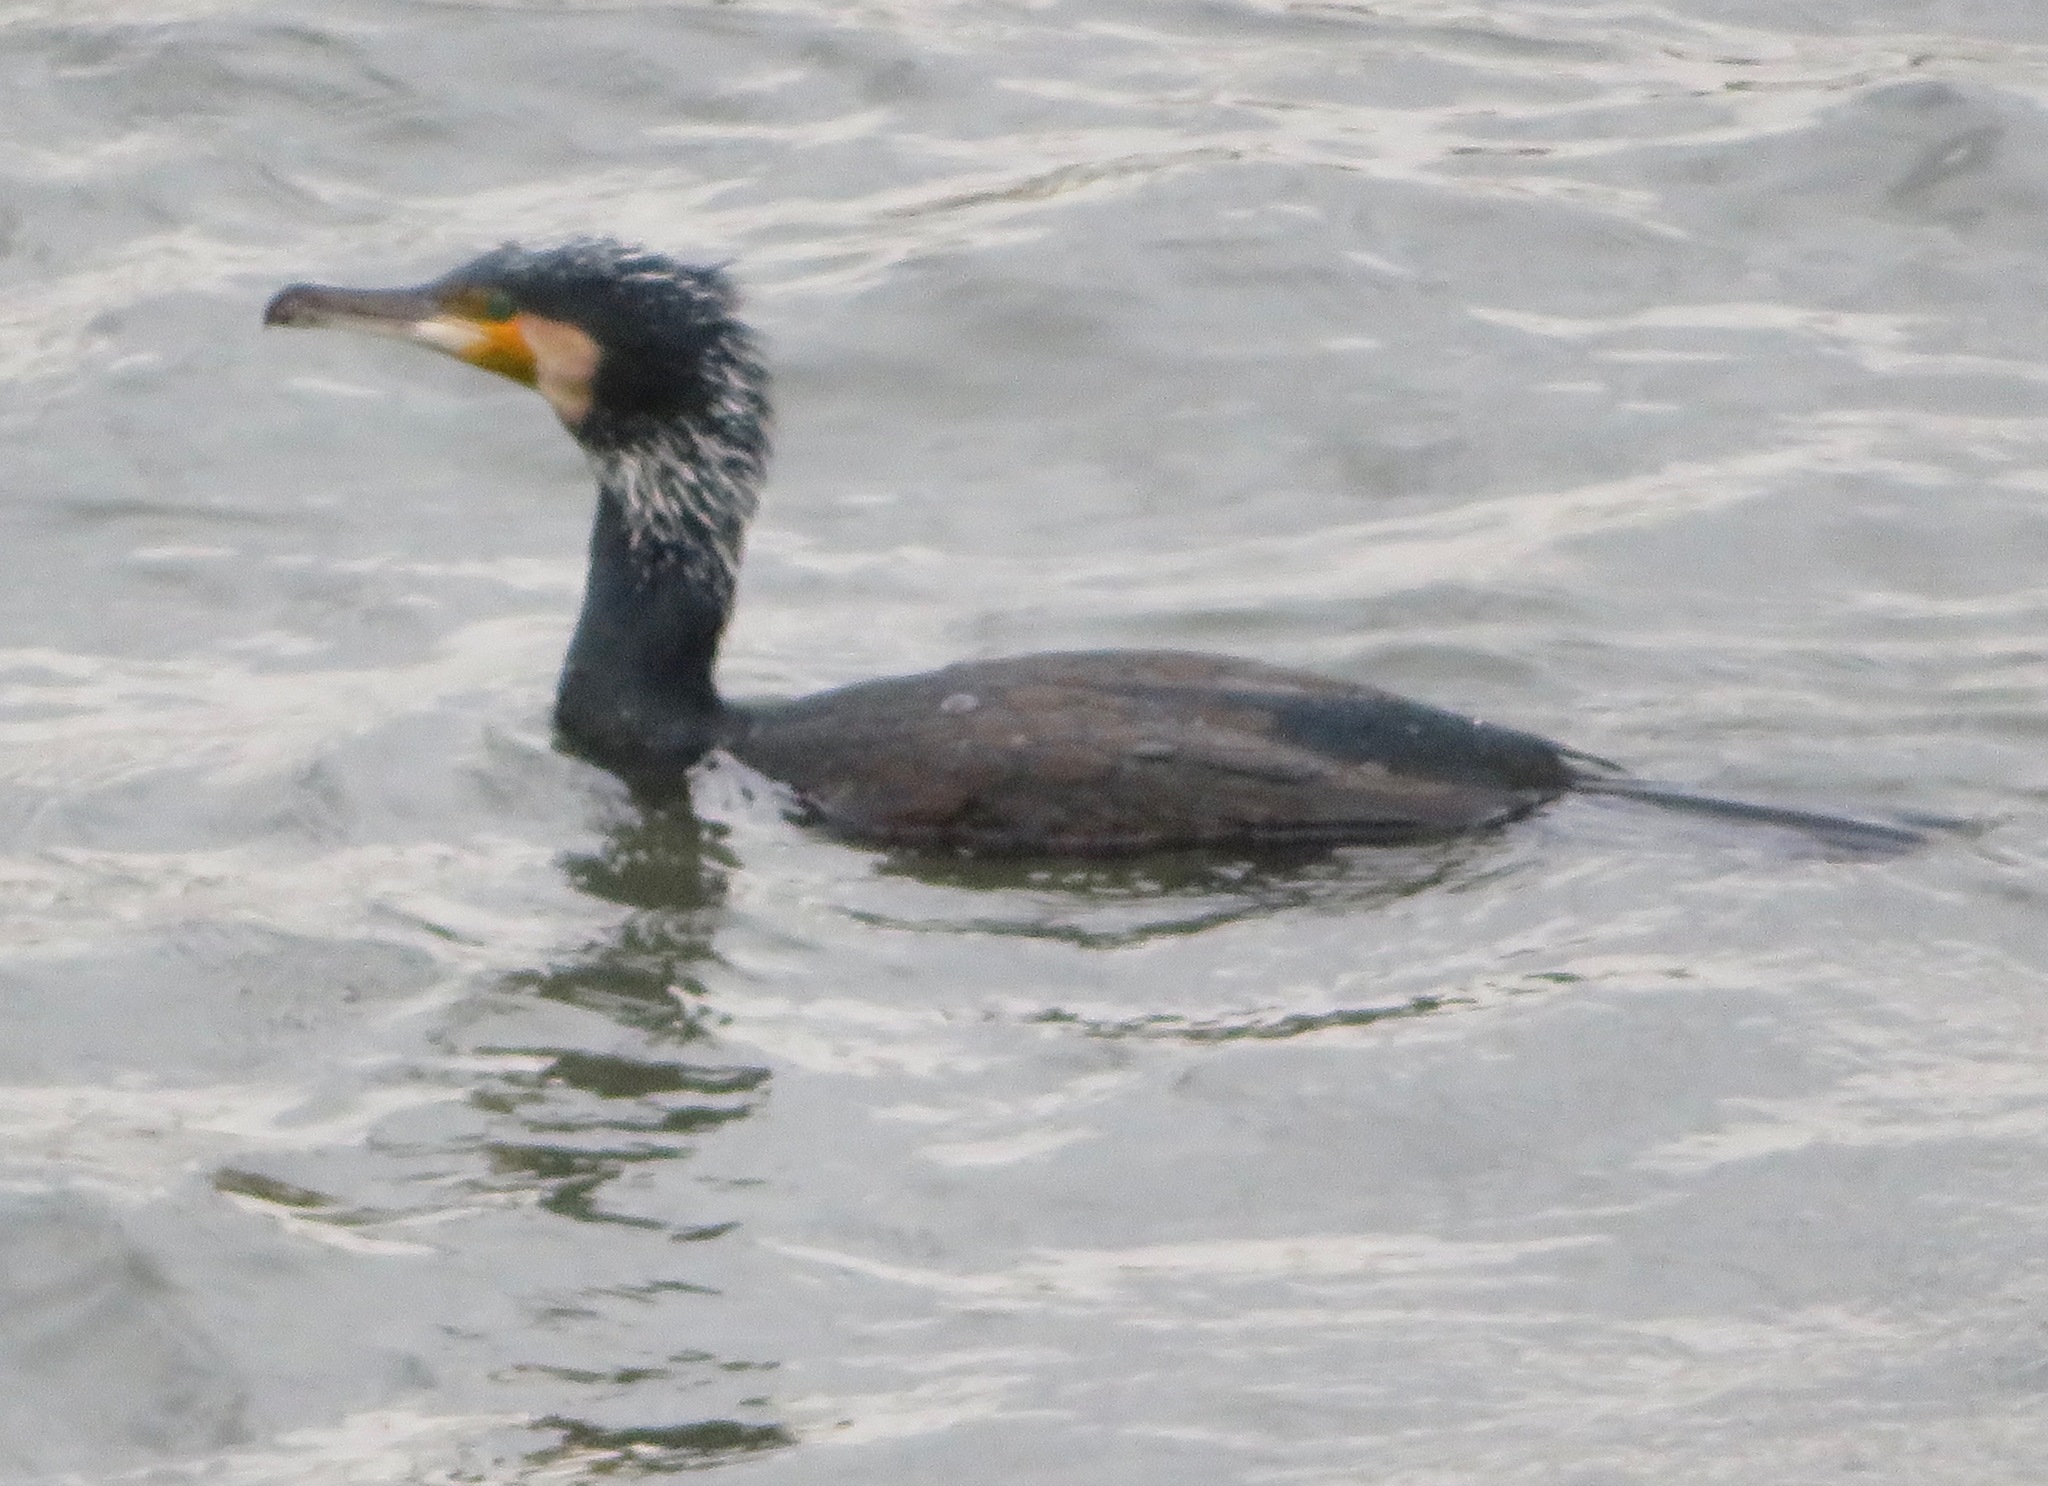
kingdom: Animalia
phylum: Chordata
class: Aves
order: Suliformes
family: Phalacrocoracidae
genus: Phalacrocorax
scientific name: Phalacrocorax carbo
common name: Great cormorant
